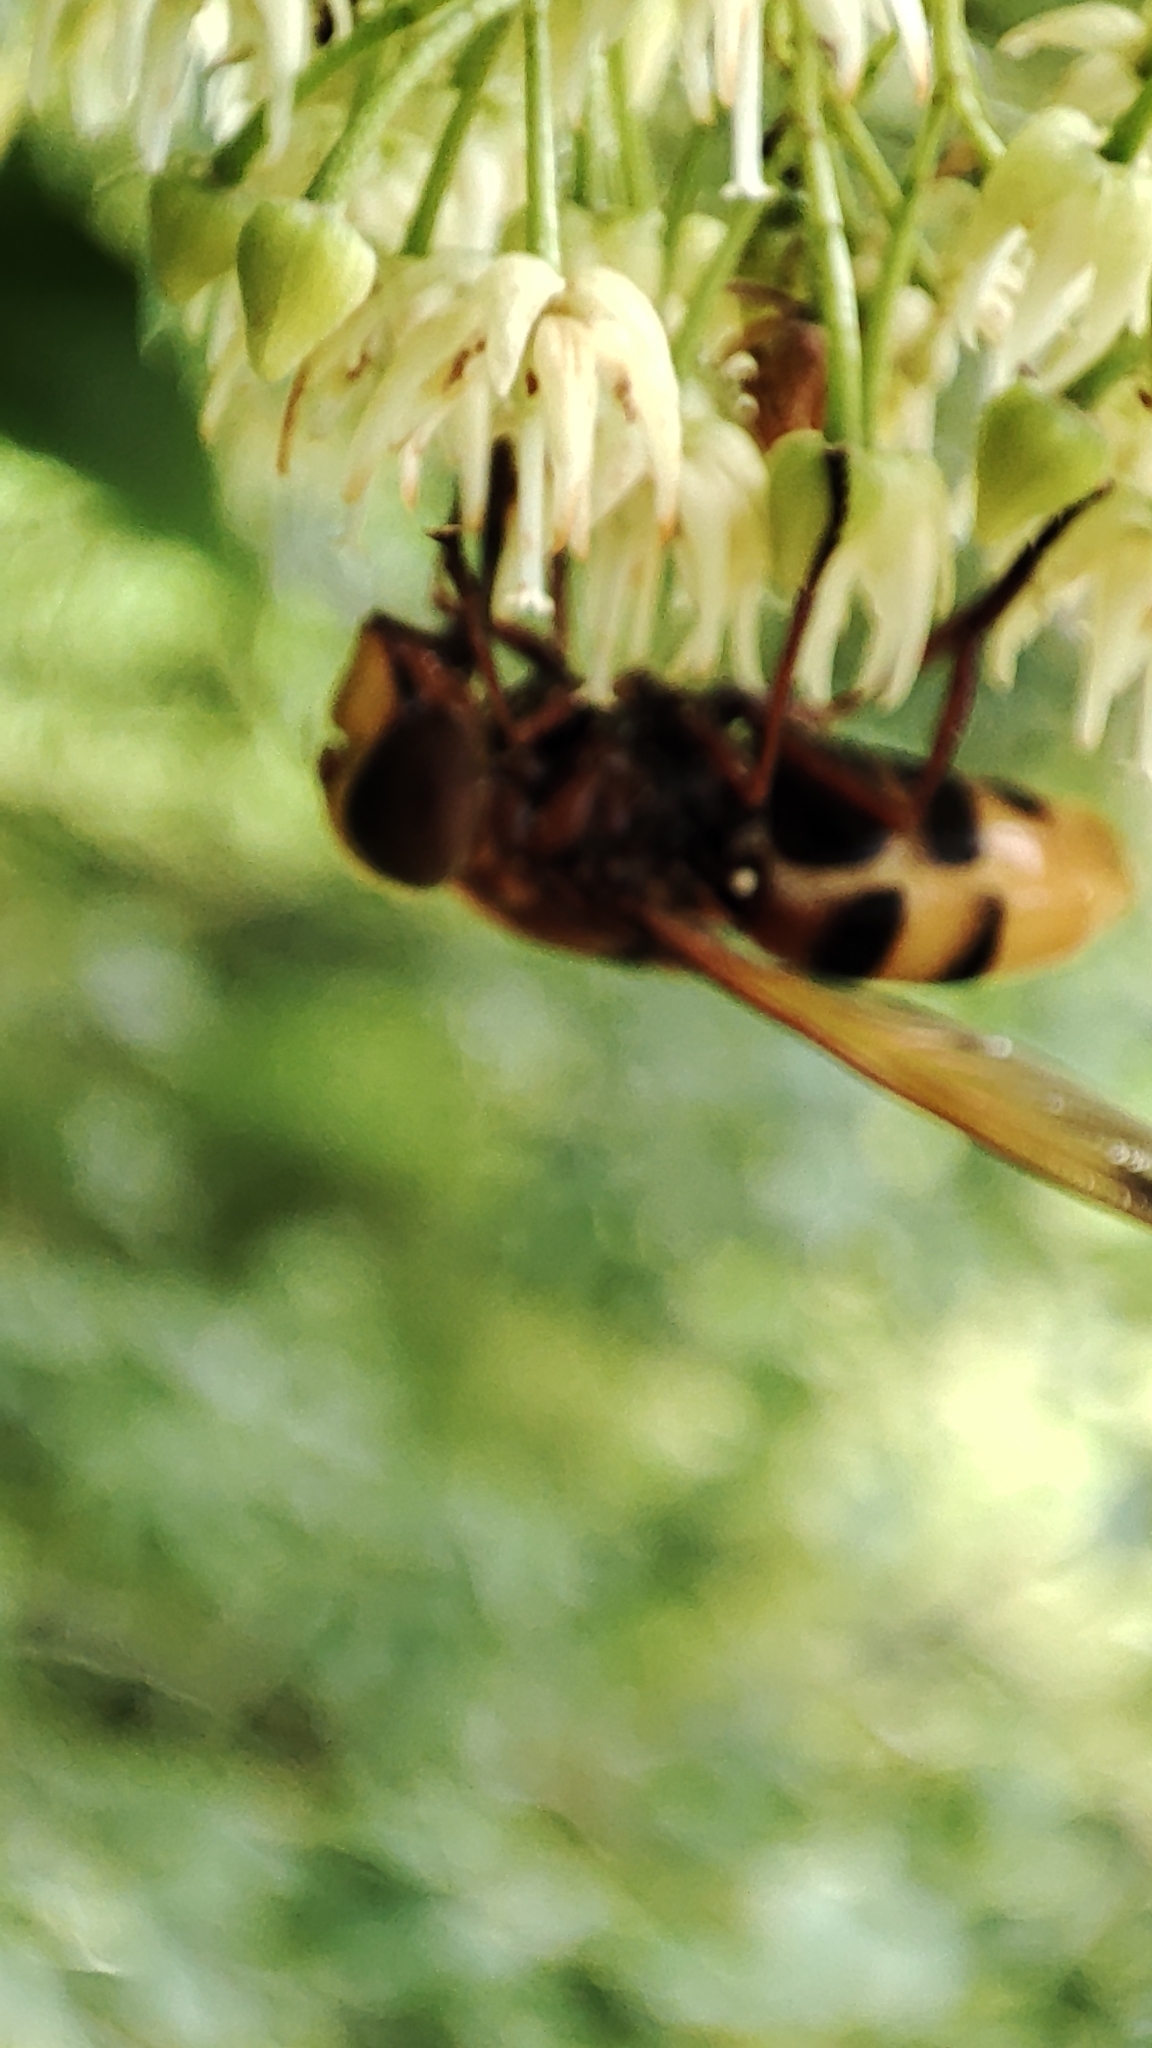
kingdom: Animalia
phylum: Arthropoda
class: Insecta
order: Diptera
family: Syrphidae
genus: Volucella
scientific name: Volucella zonaria
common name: Hornet hoverfly
